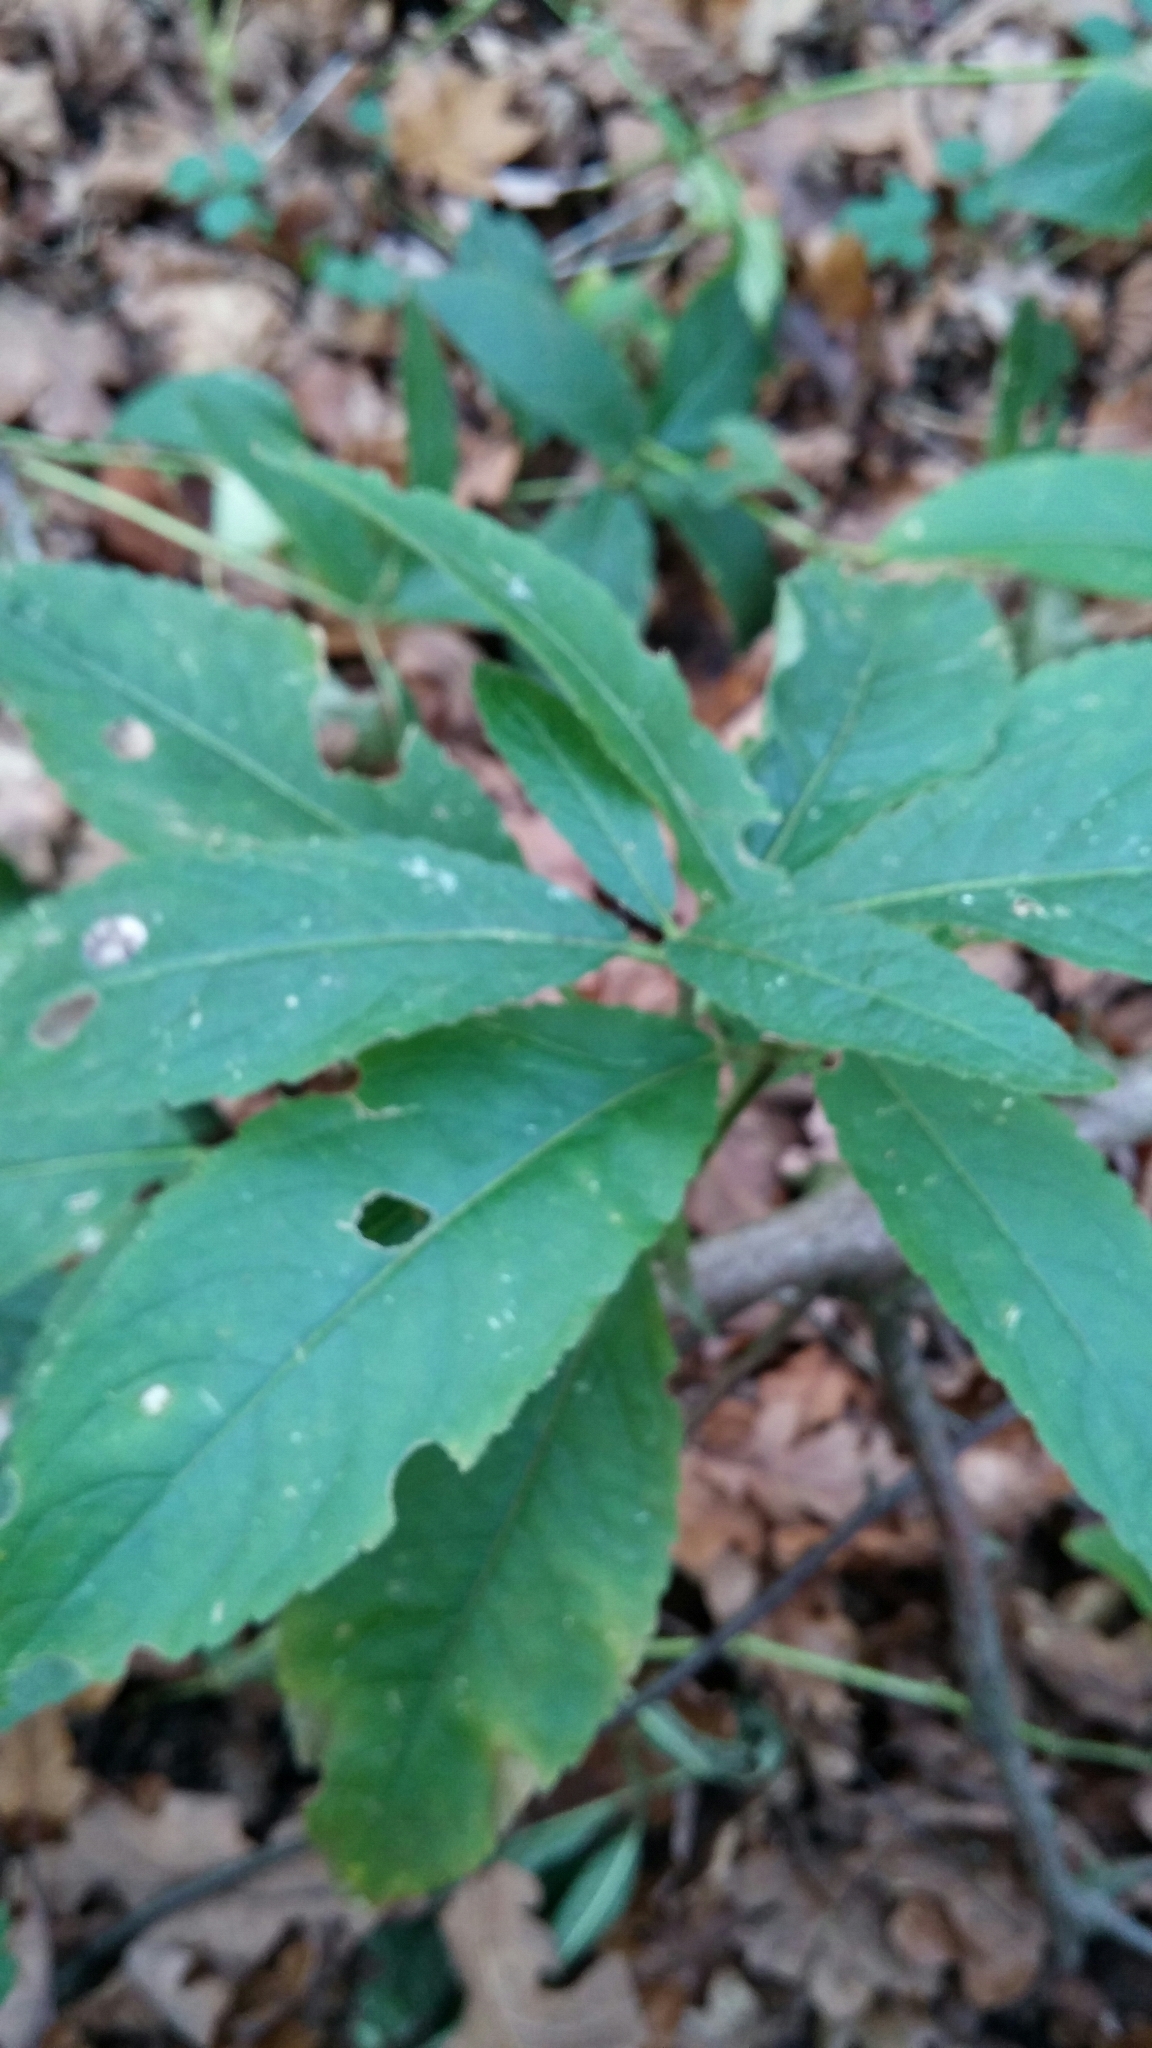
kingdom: Plantae
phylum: Tracheophyta
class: Magnoliopsida
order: Malpighiales
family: Euphorbiaceae
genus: Mercurialis
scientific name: Mercurialis perennis
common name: Dog mercury
